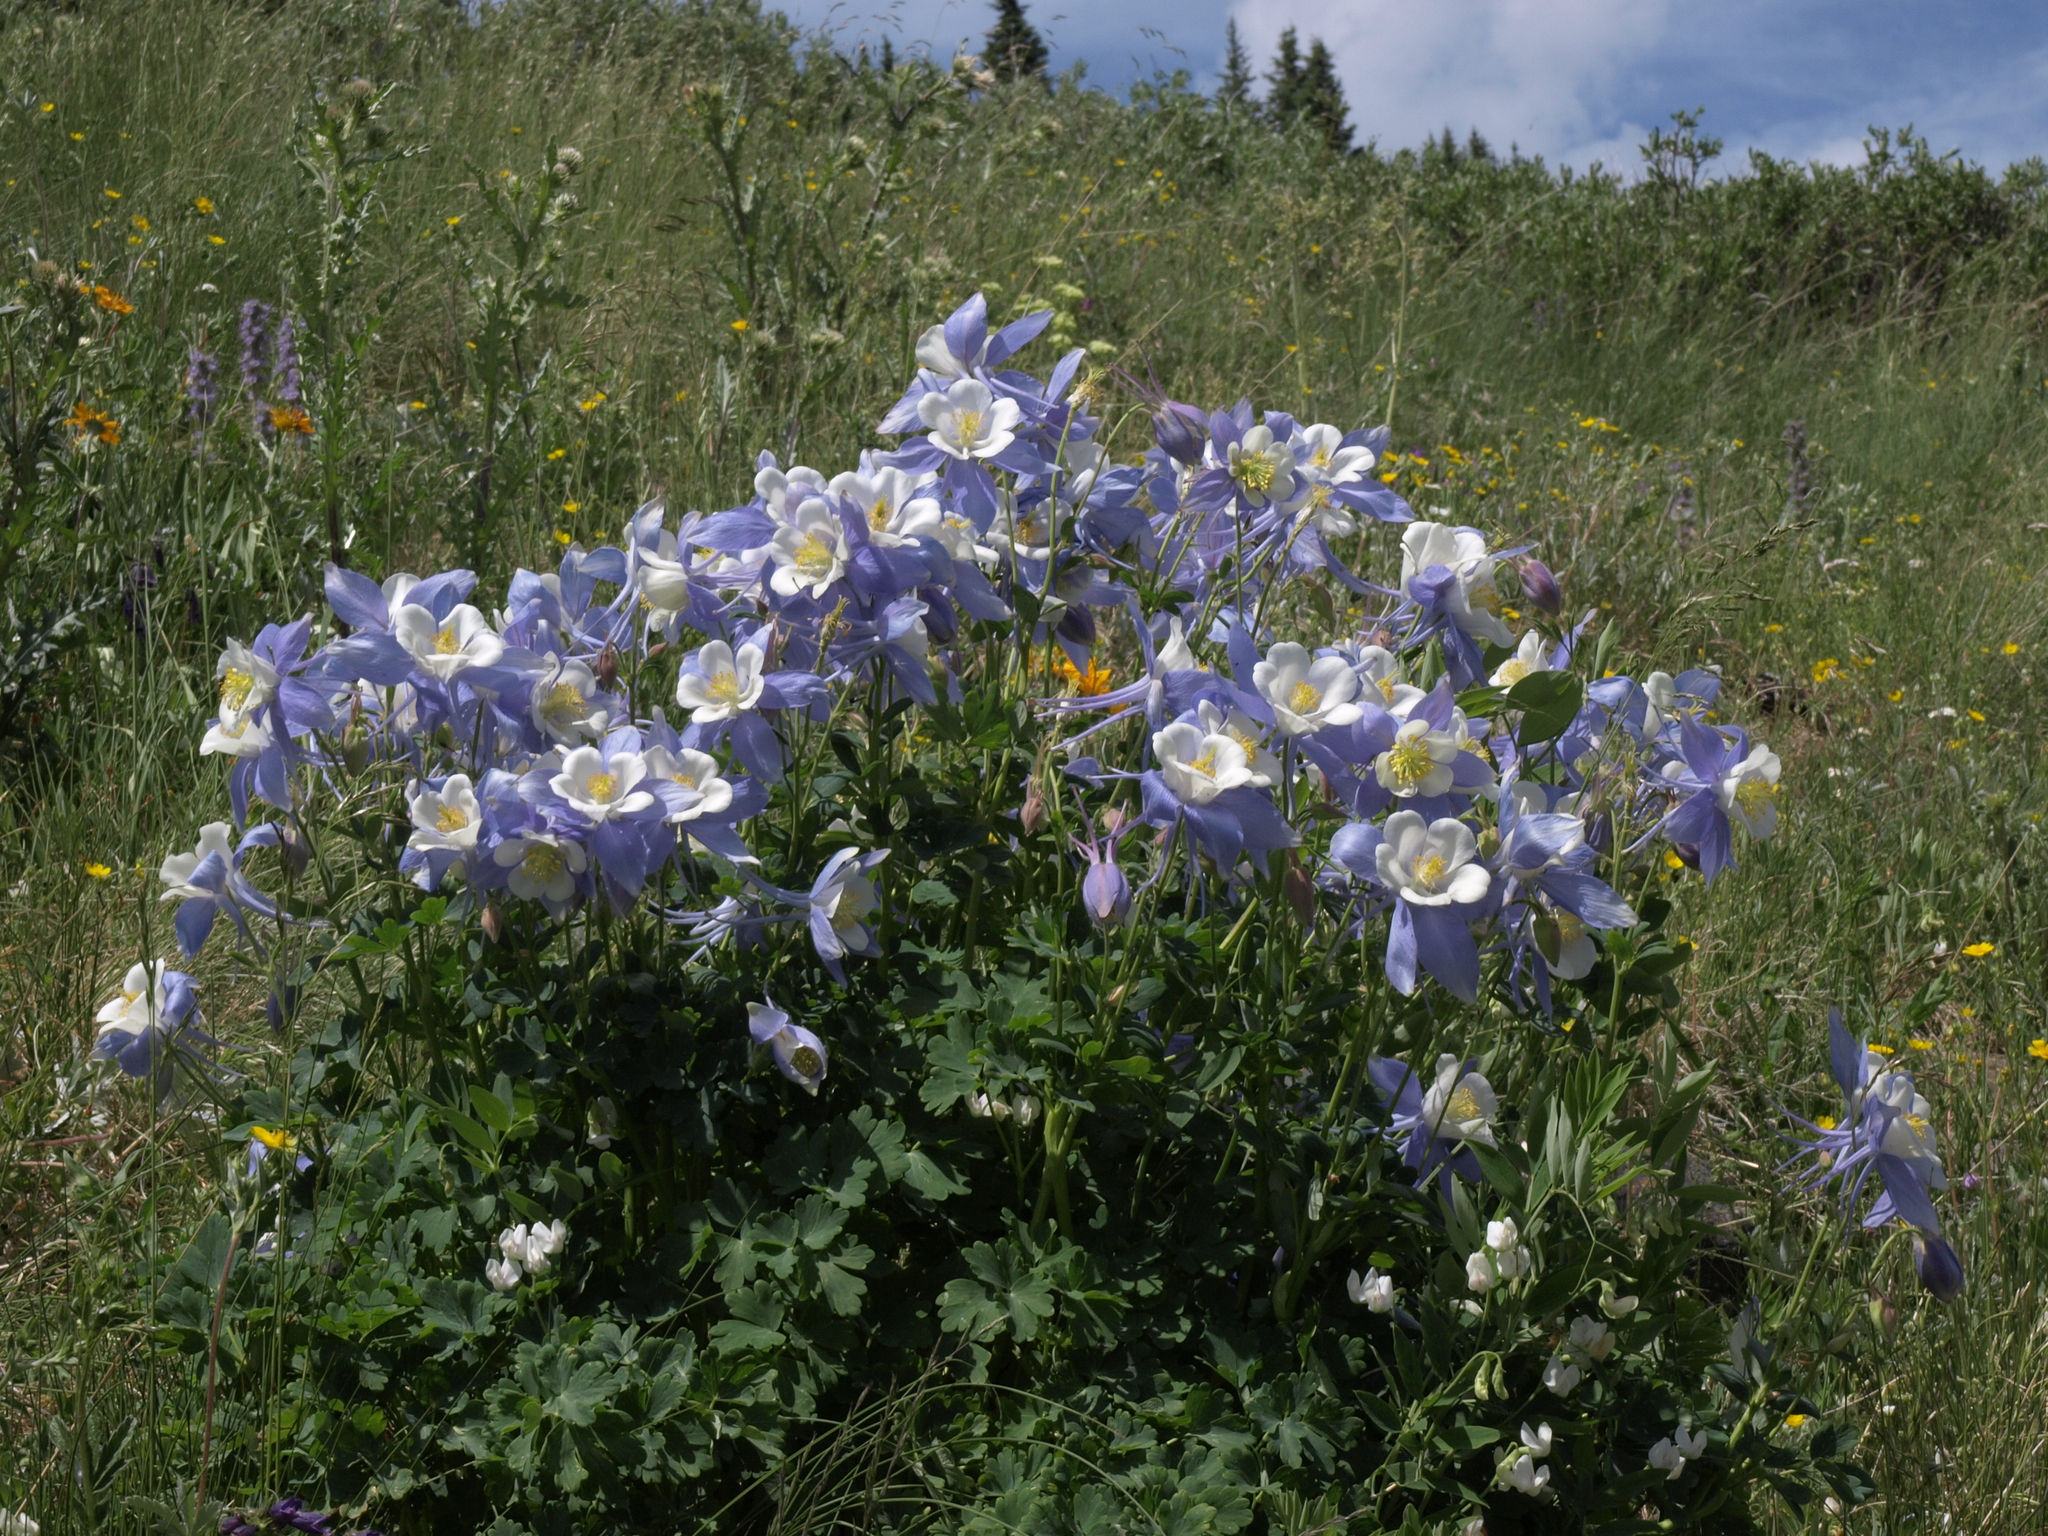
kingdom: Plantae
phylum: Tracheophyta
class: Magnoliopsida
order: Ranunculales
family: Ranunculaceae
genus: Aquilegia
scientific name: Aquilegia coerulea
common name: Rocky mountain columbine
